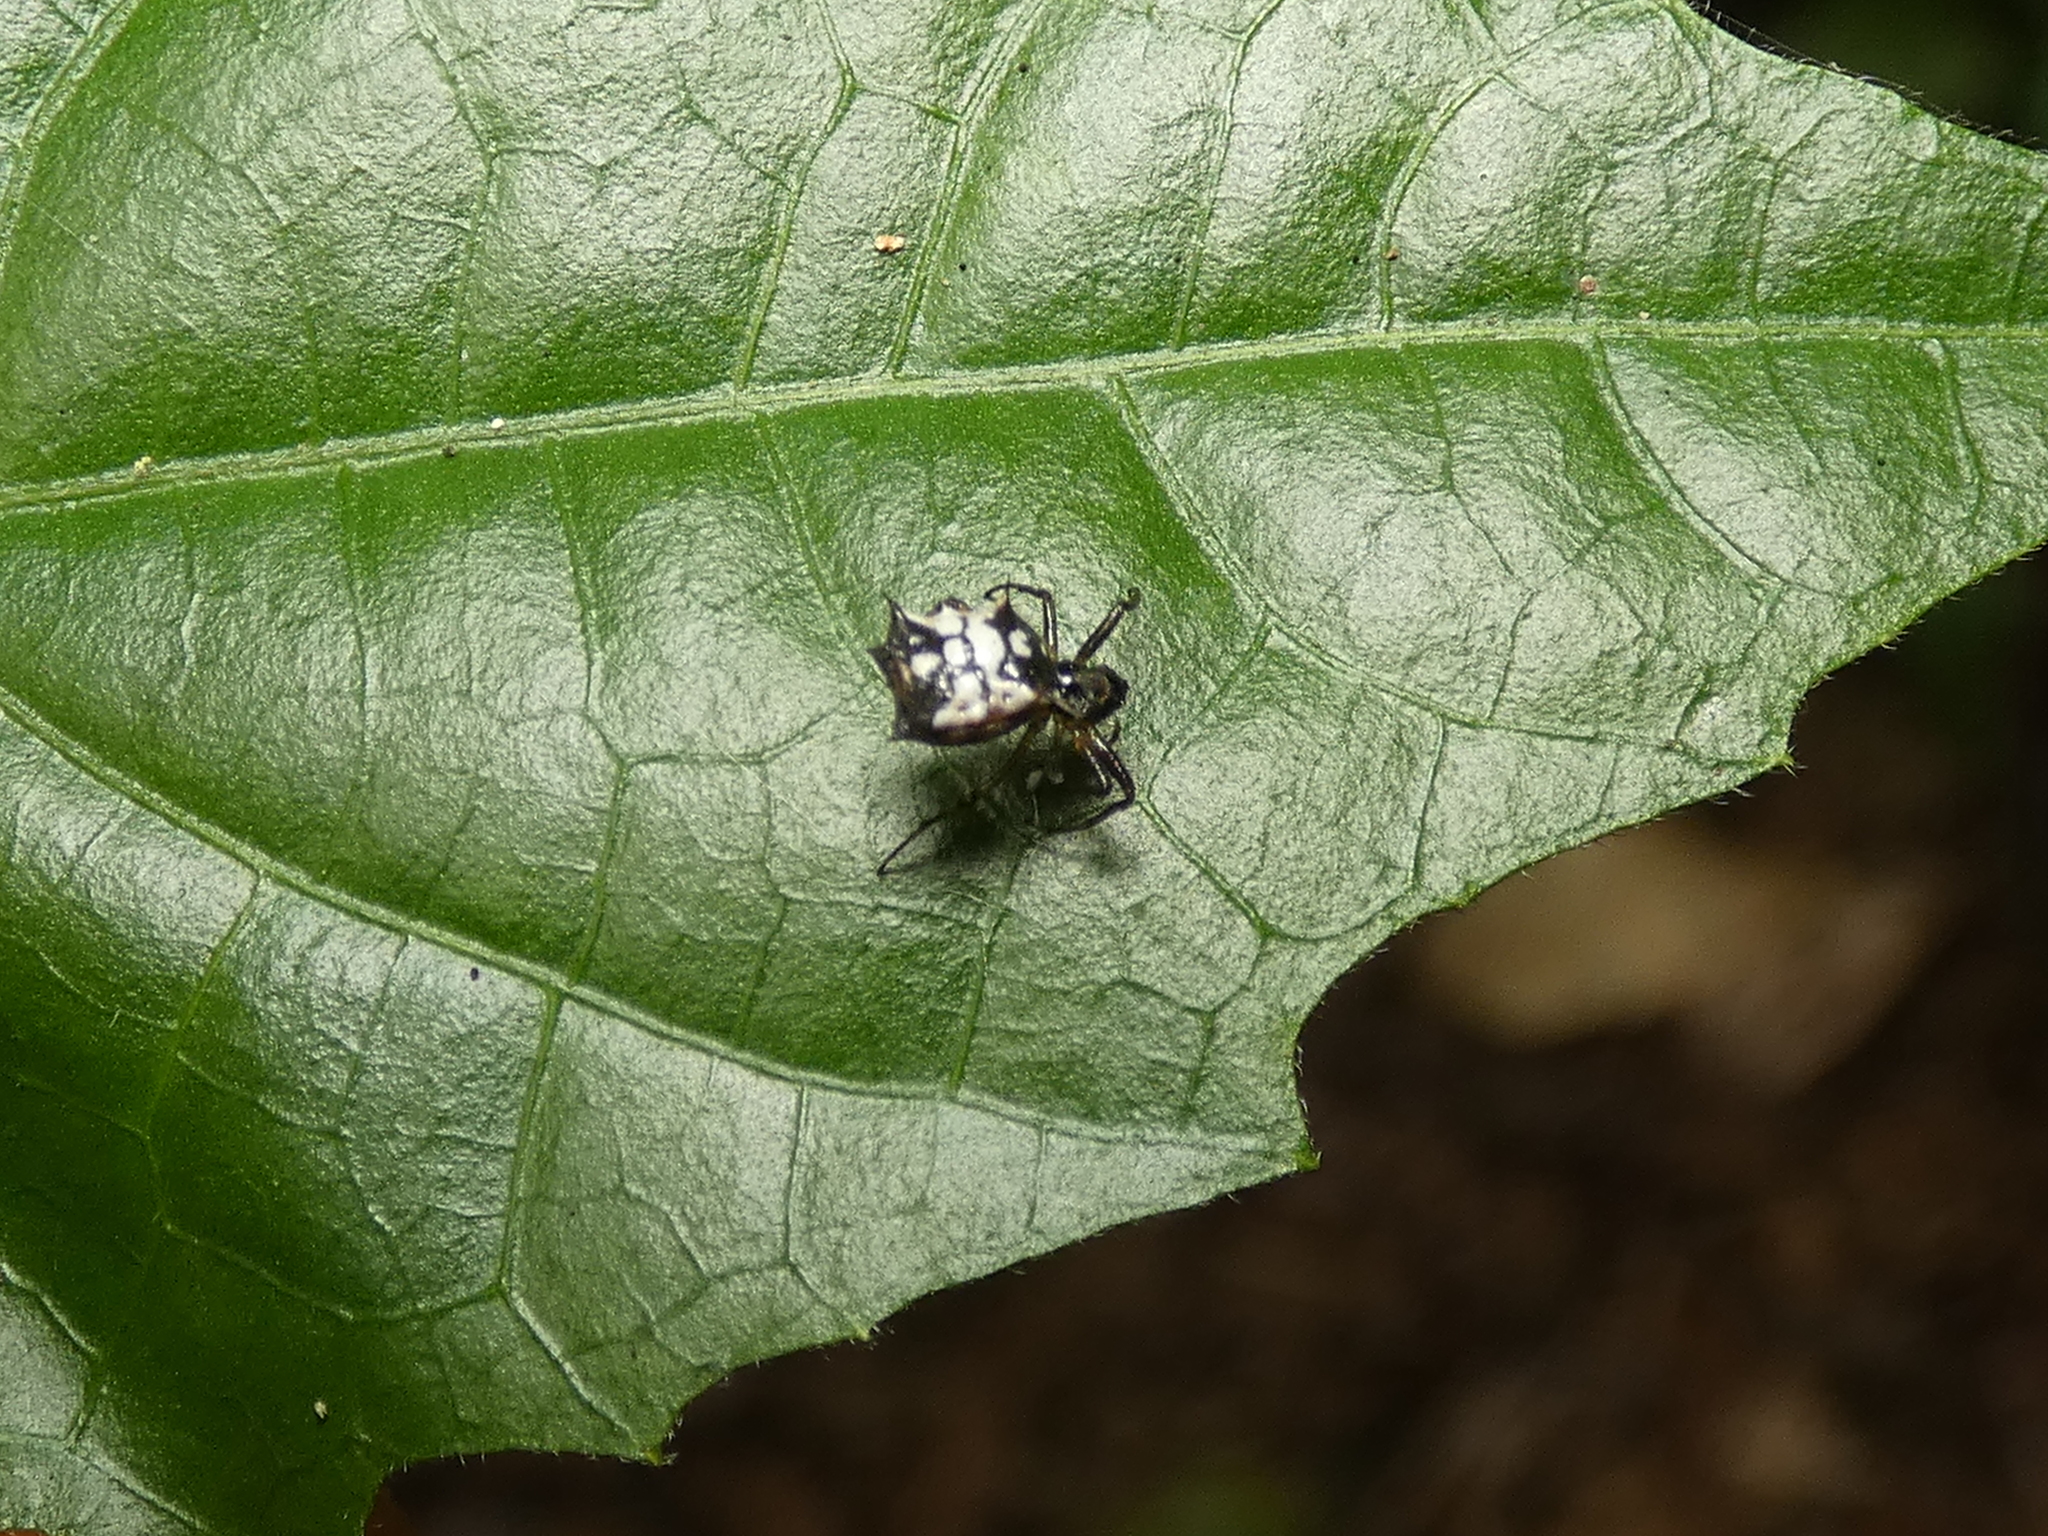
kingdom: Animalia
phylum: Arthropoda
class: Arachnida
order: Araneae
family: Araneidae
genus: Micrathena
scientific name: Micrathena picta
